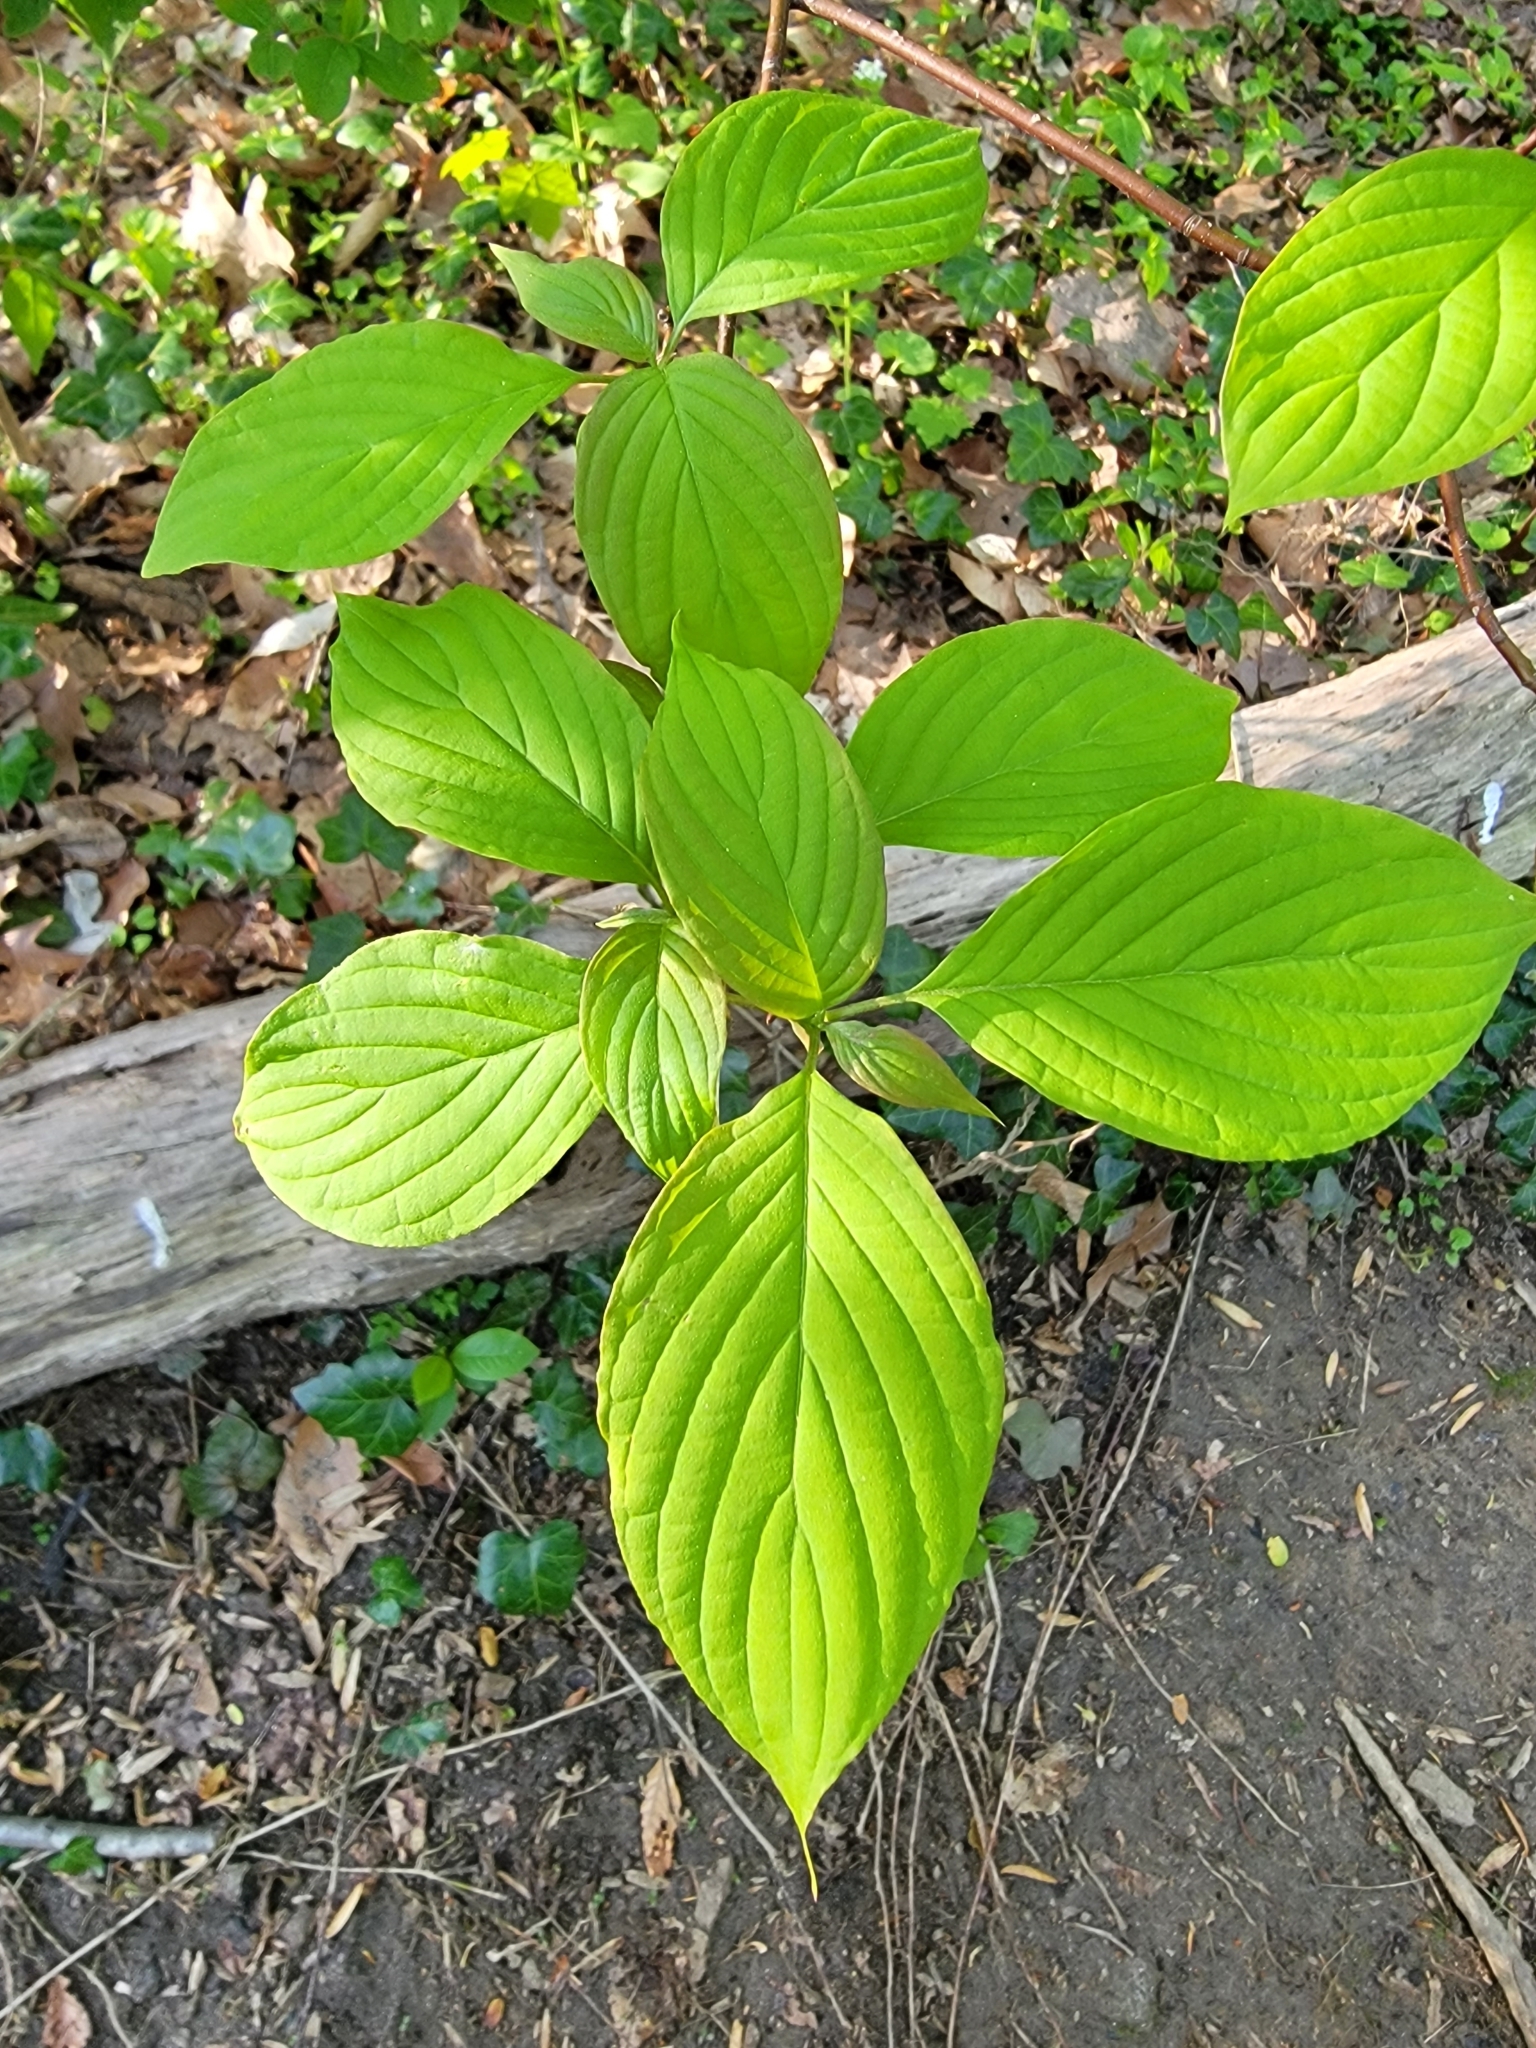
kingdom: Plantae
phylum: Tracheophyta
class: Magnoliopsida
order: Cornales
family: Cornaceae
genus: Cornus
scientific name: Cornus alternifolia
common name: Pagoda dogwood
